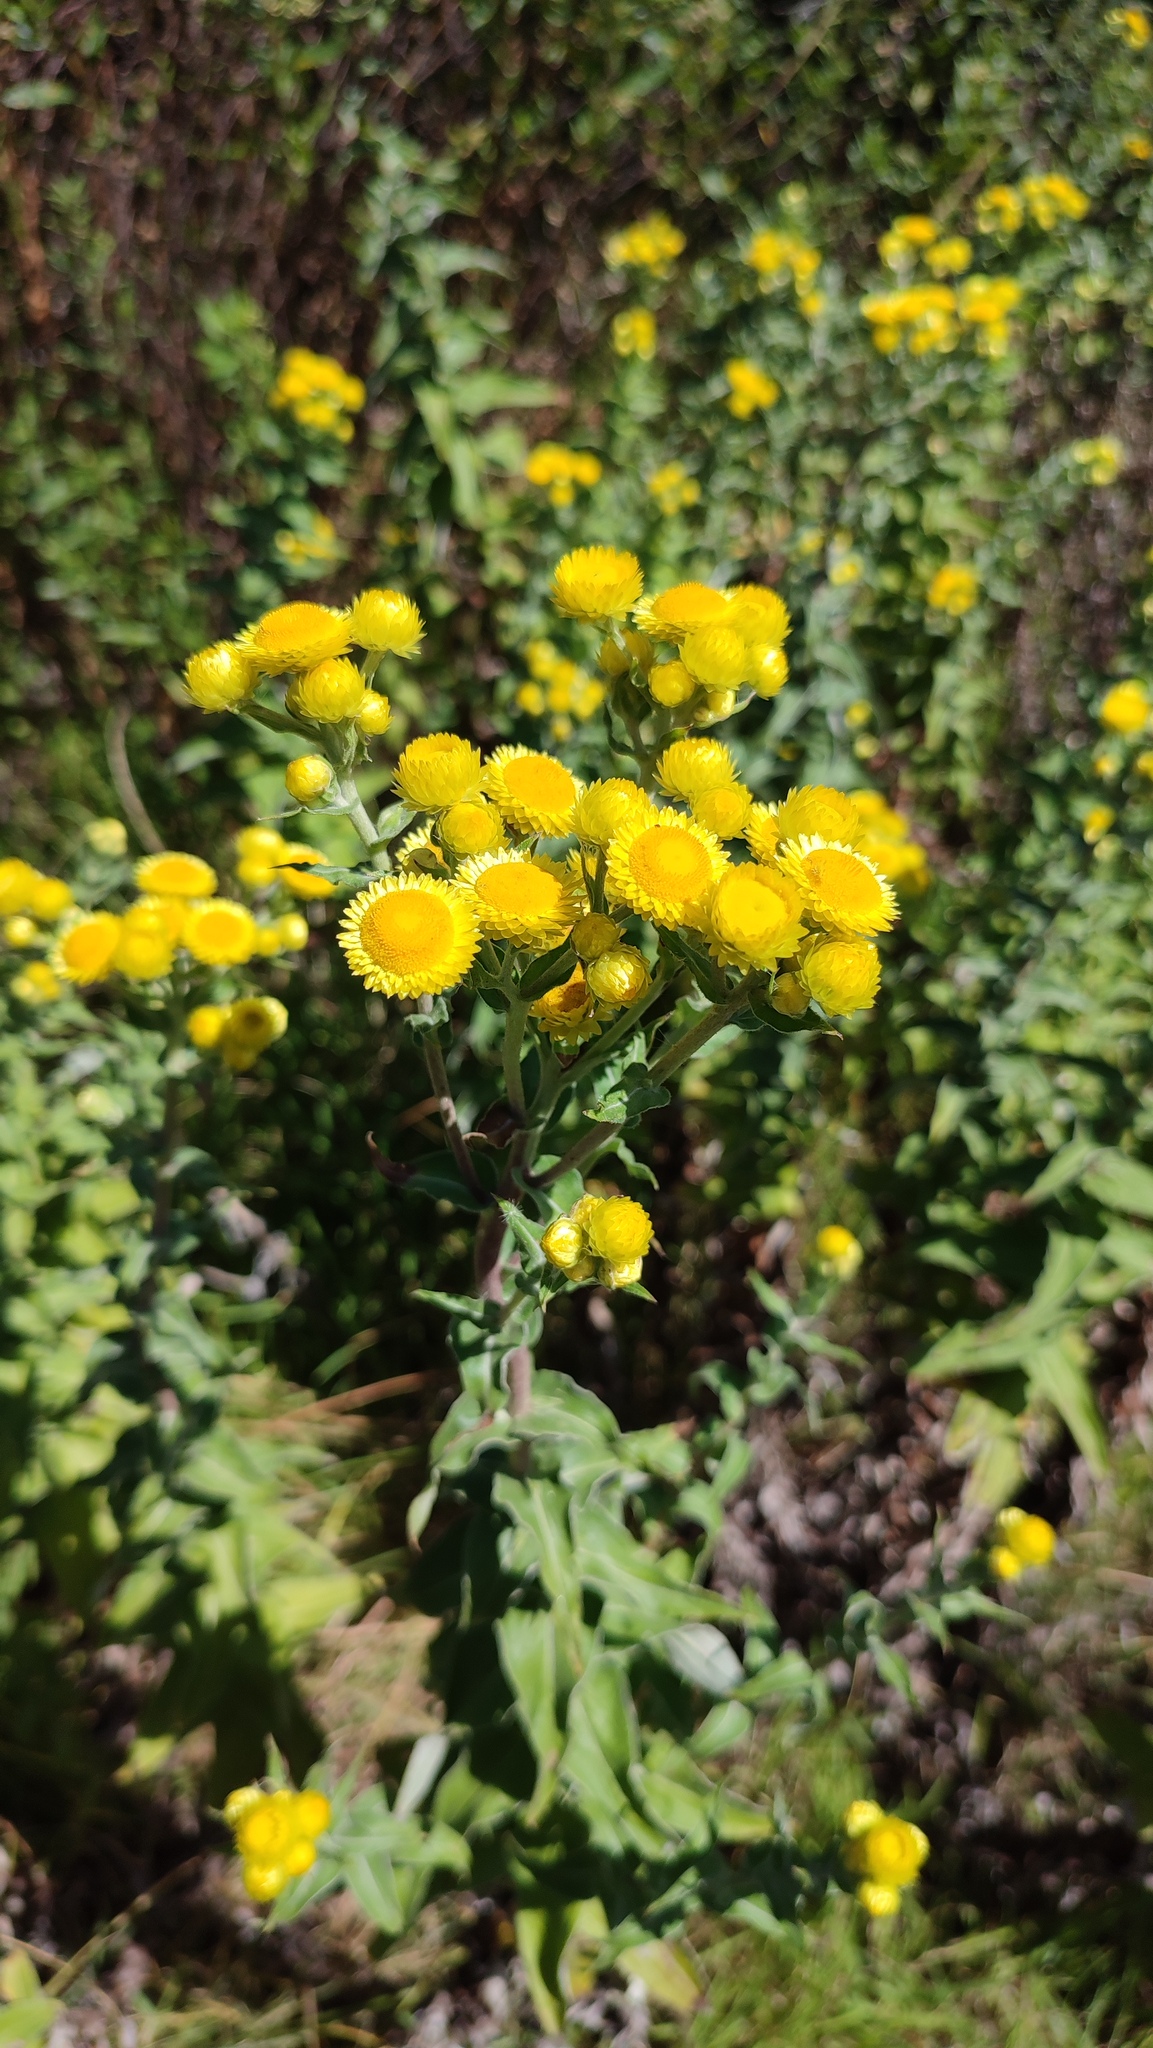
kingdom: Plantae
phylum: Tracheophyta
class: Magnoliopsida
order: Asterales
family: Asteraceae
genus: Helichrysum
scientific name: Helichrysum foetidum
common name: Stinking everlasting
